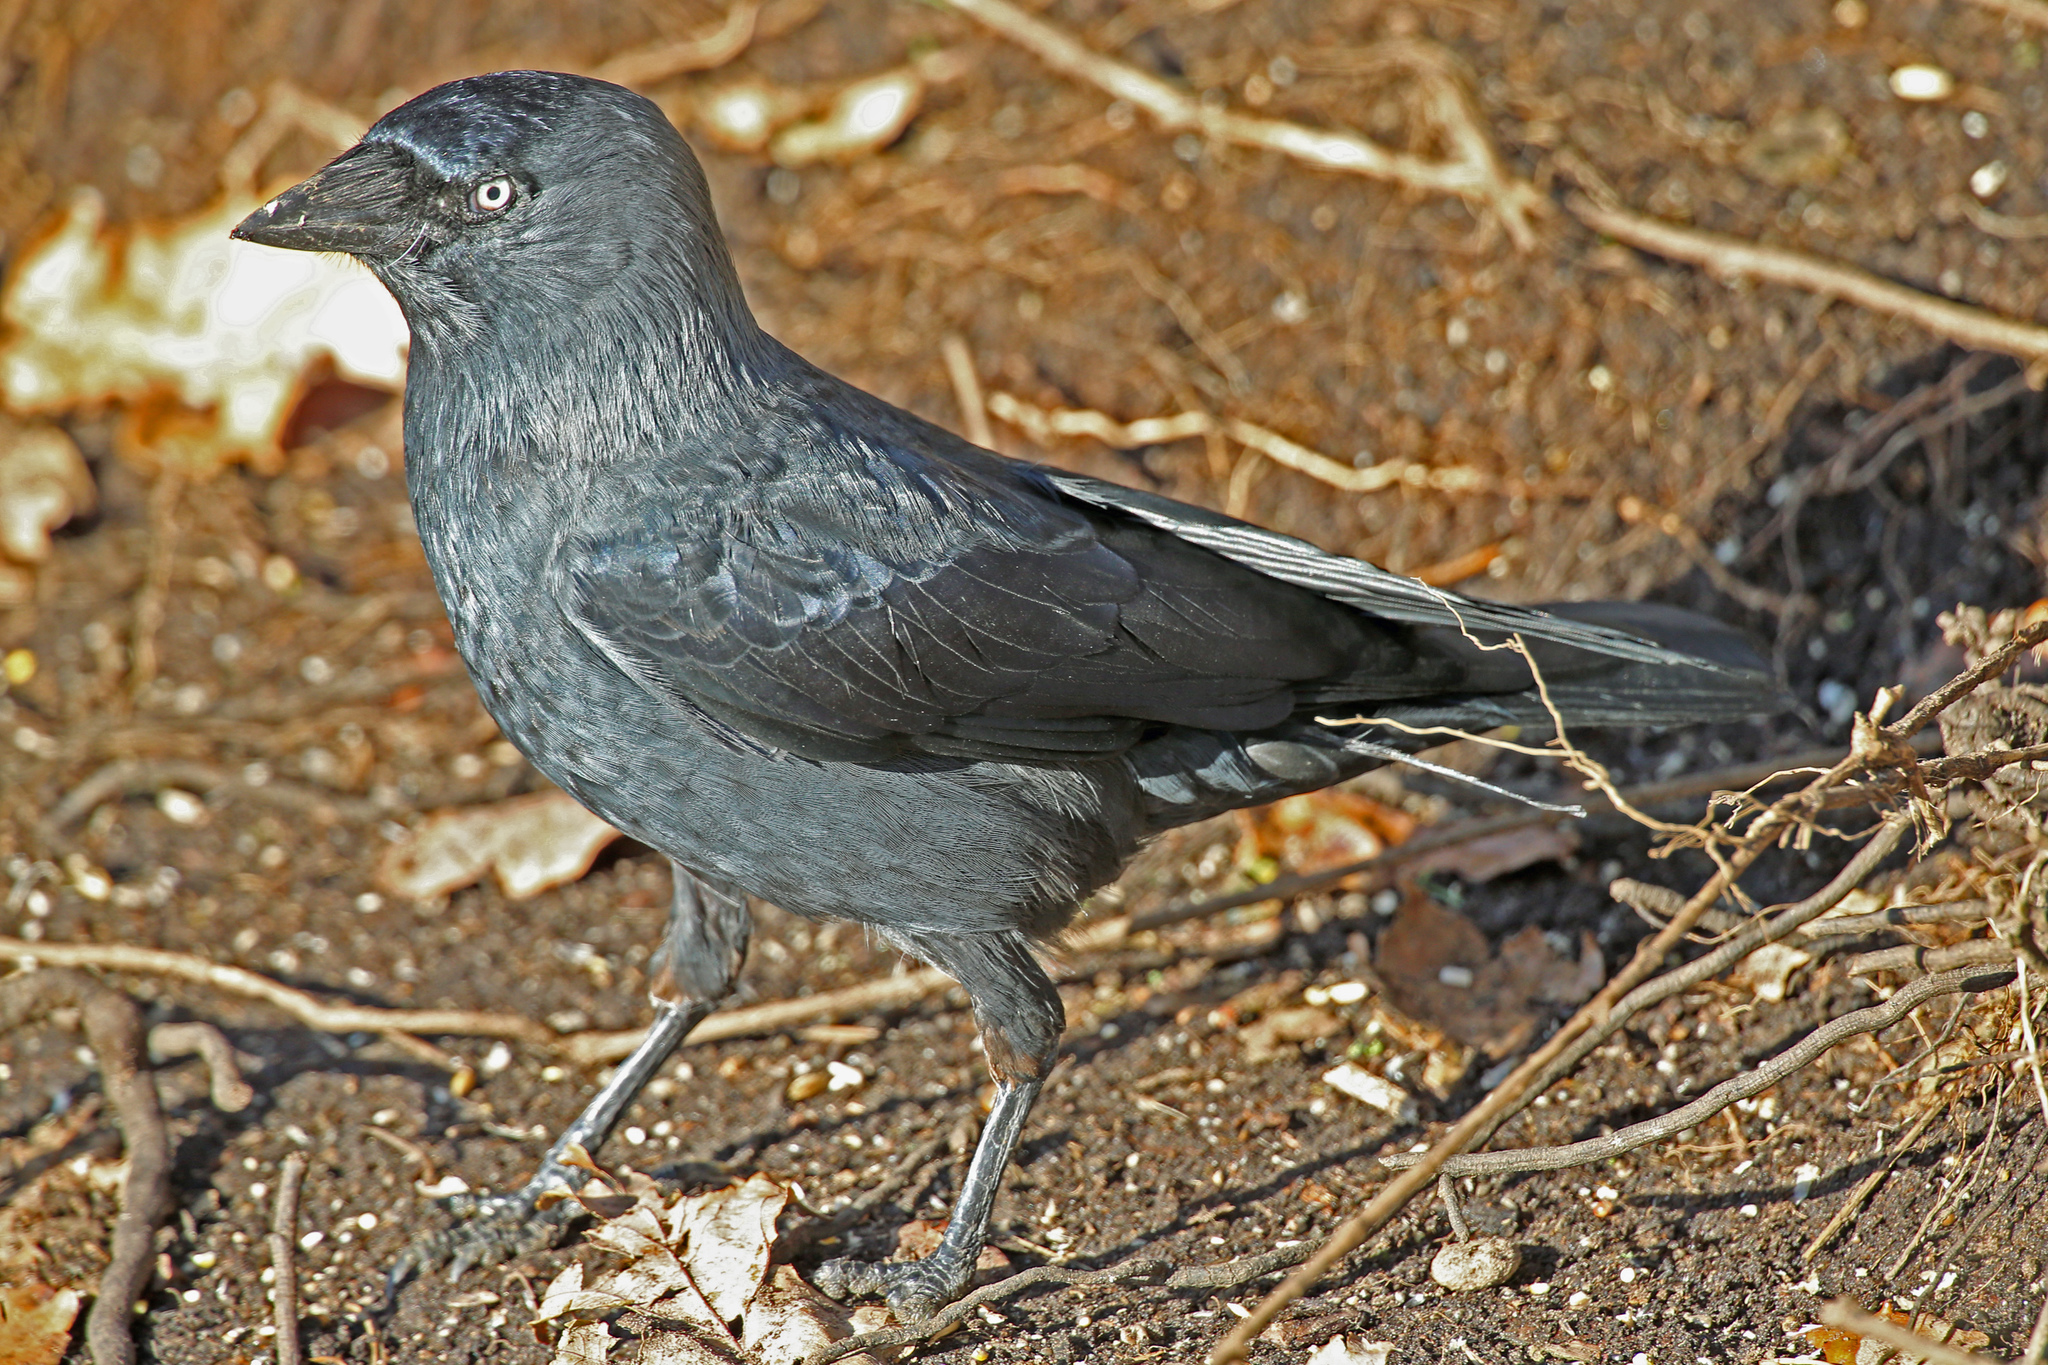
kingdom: Animalia
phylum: Chordata
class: Aves
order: Passeriformes
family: Corvidae
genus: Coloeus
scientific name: Coloeus monedula
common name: Western jackdaw
